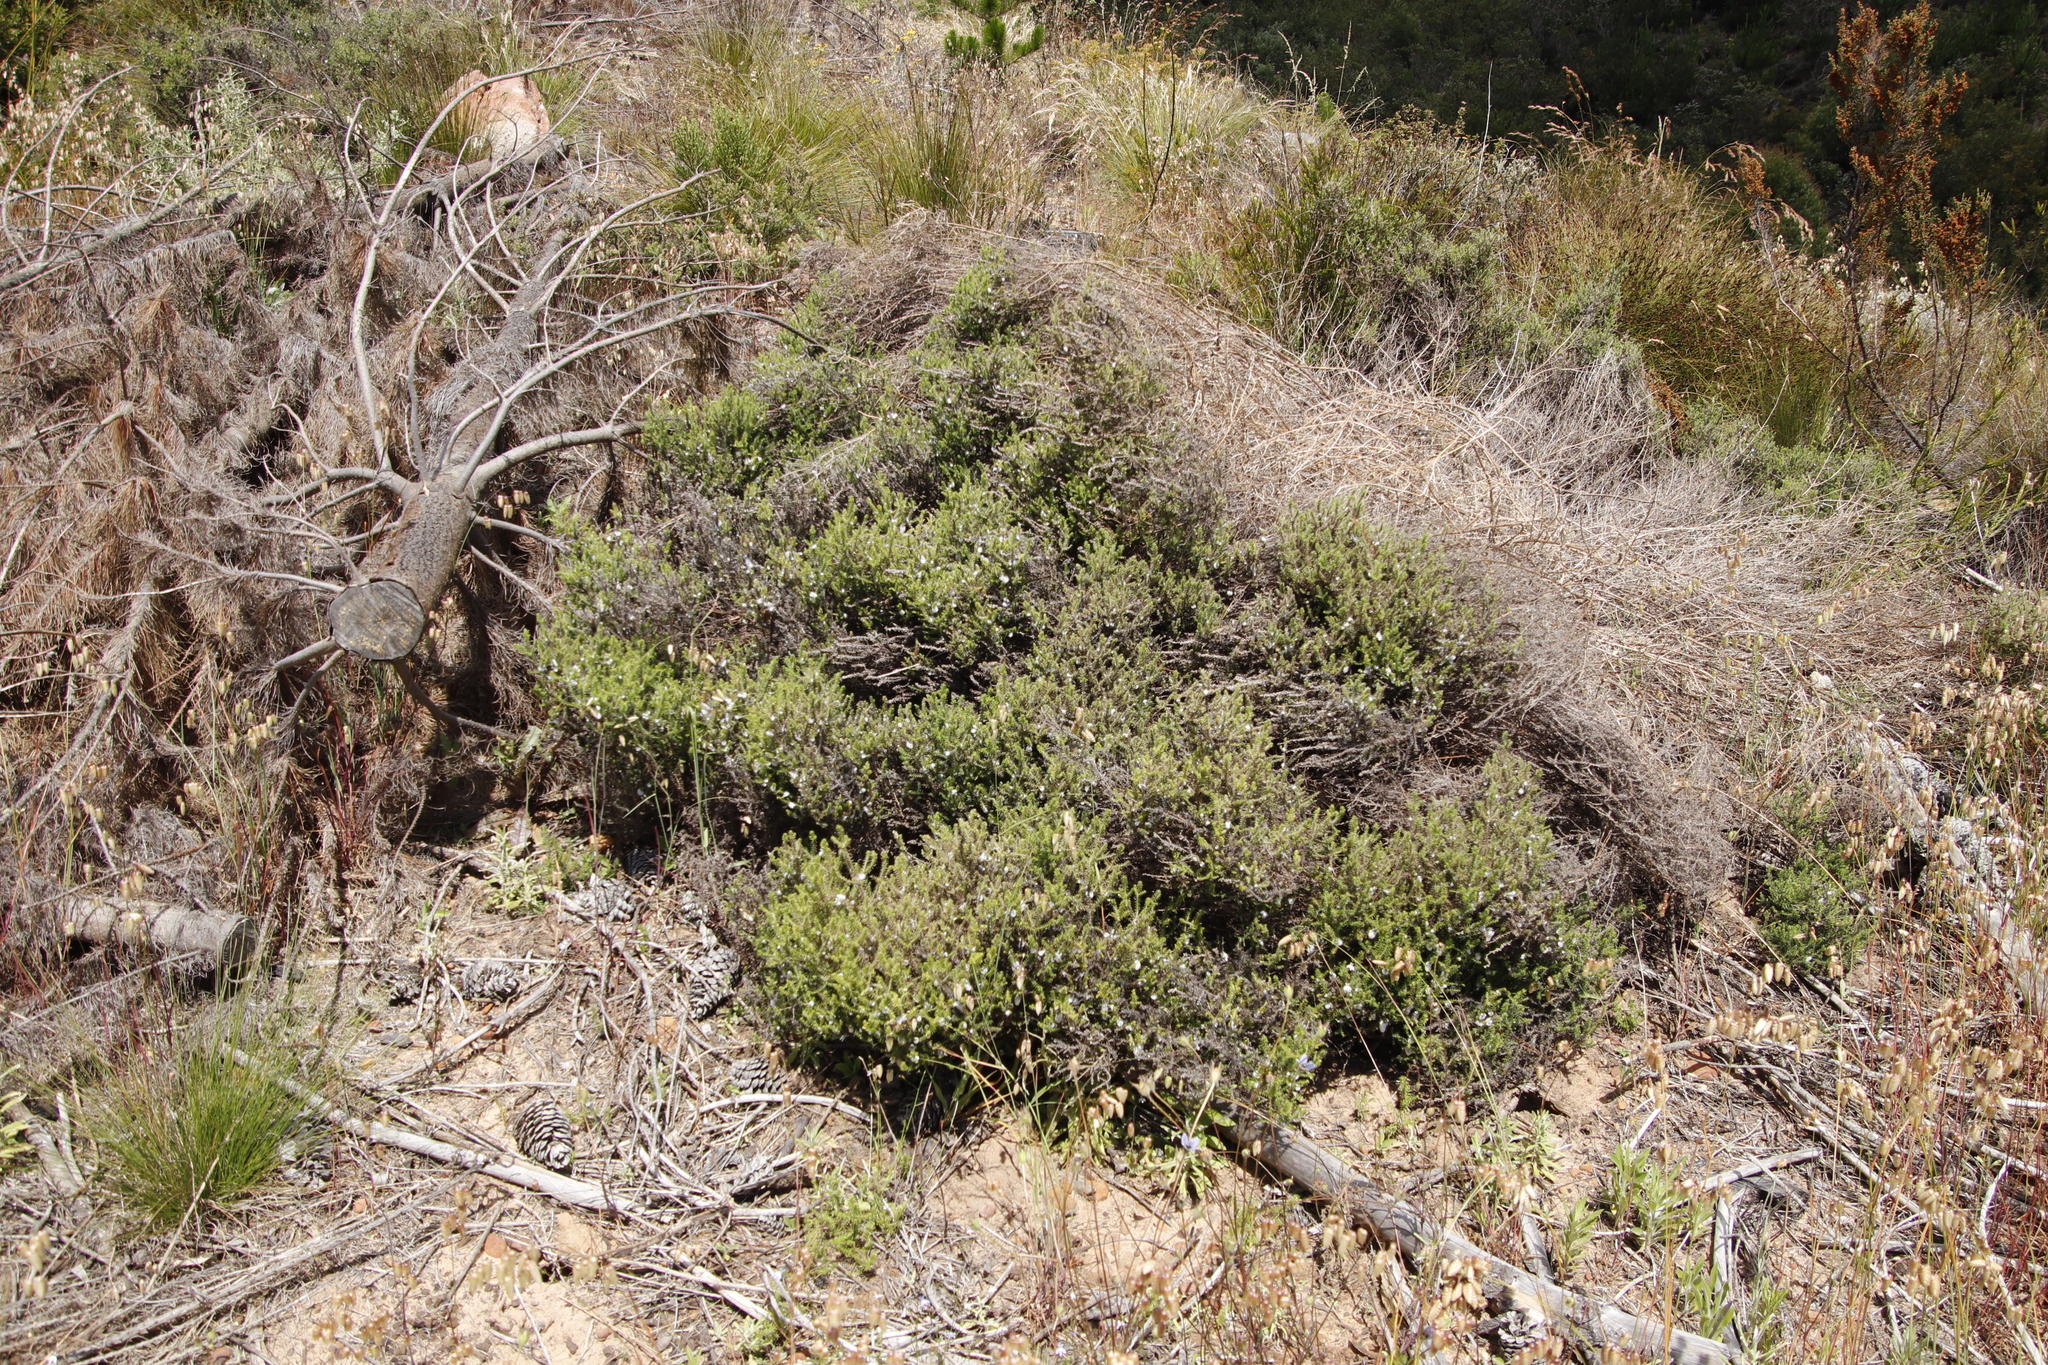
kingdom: Plantae
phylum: Tracheophyta
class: Magnoliopsida
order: Asterales
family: Asteraceae
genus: Seriphium
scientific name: Seriphium cinereum
